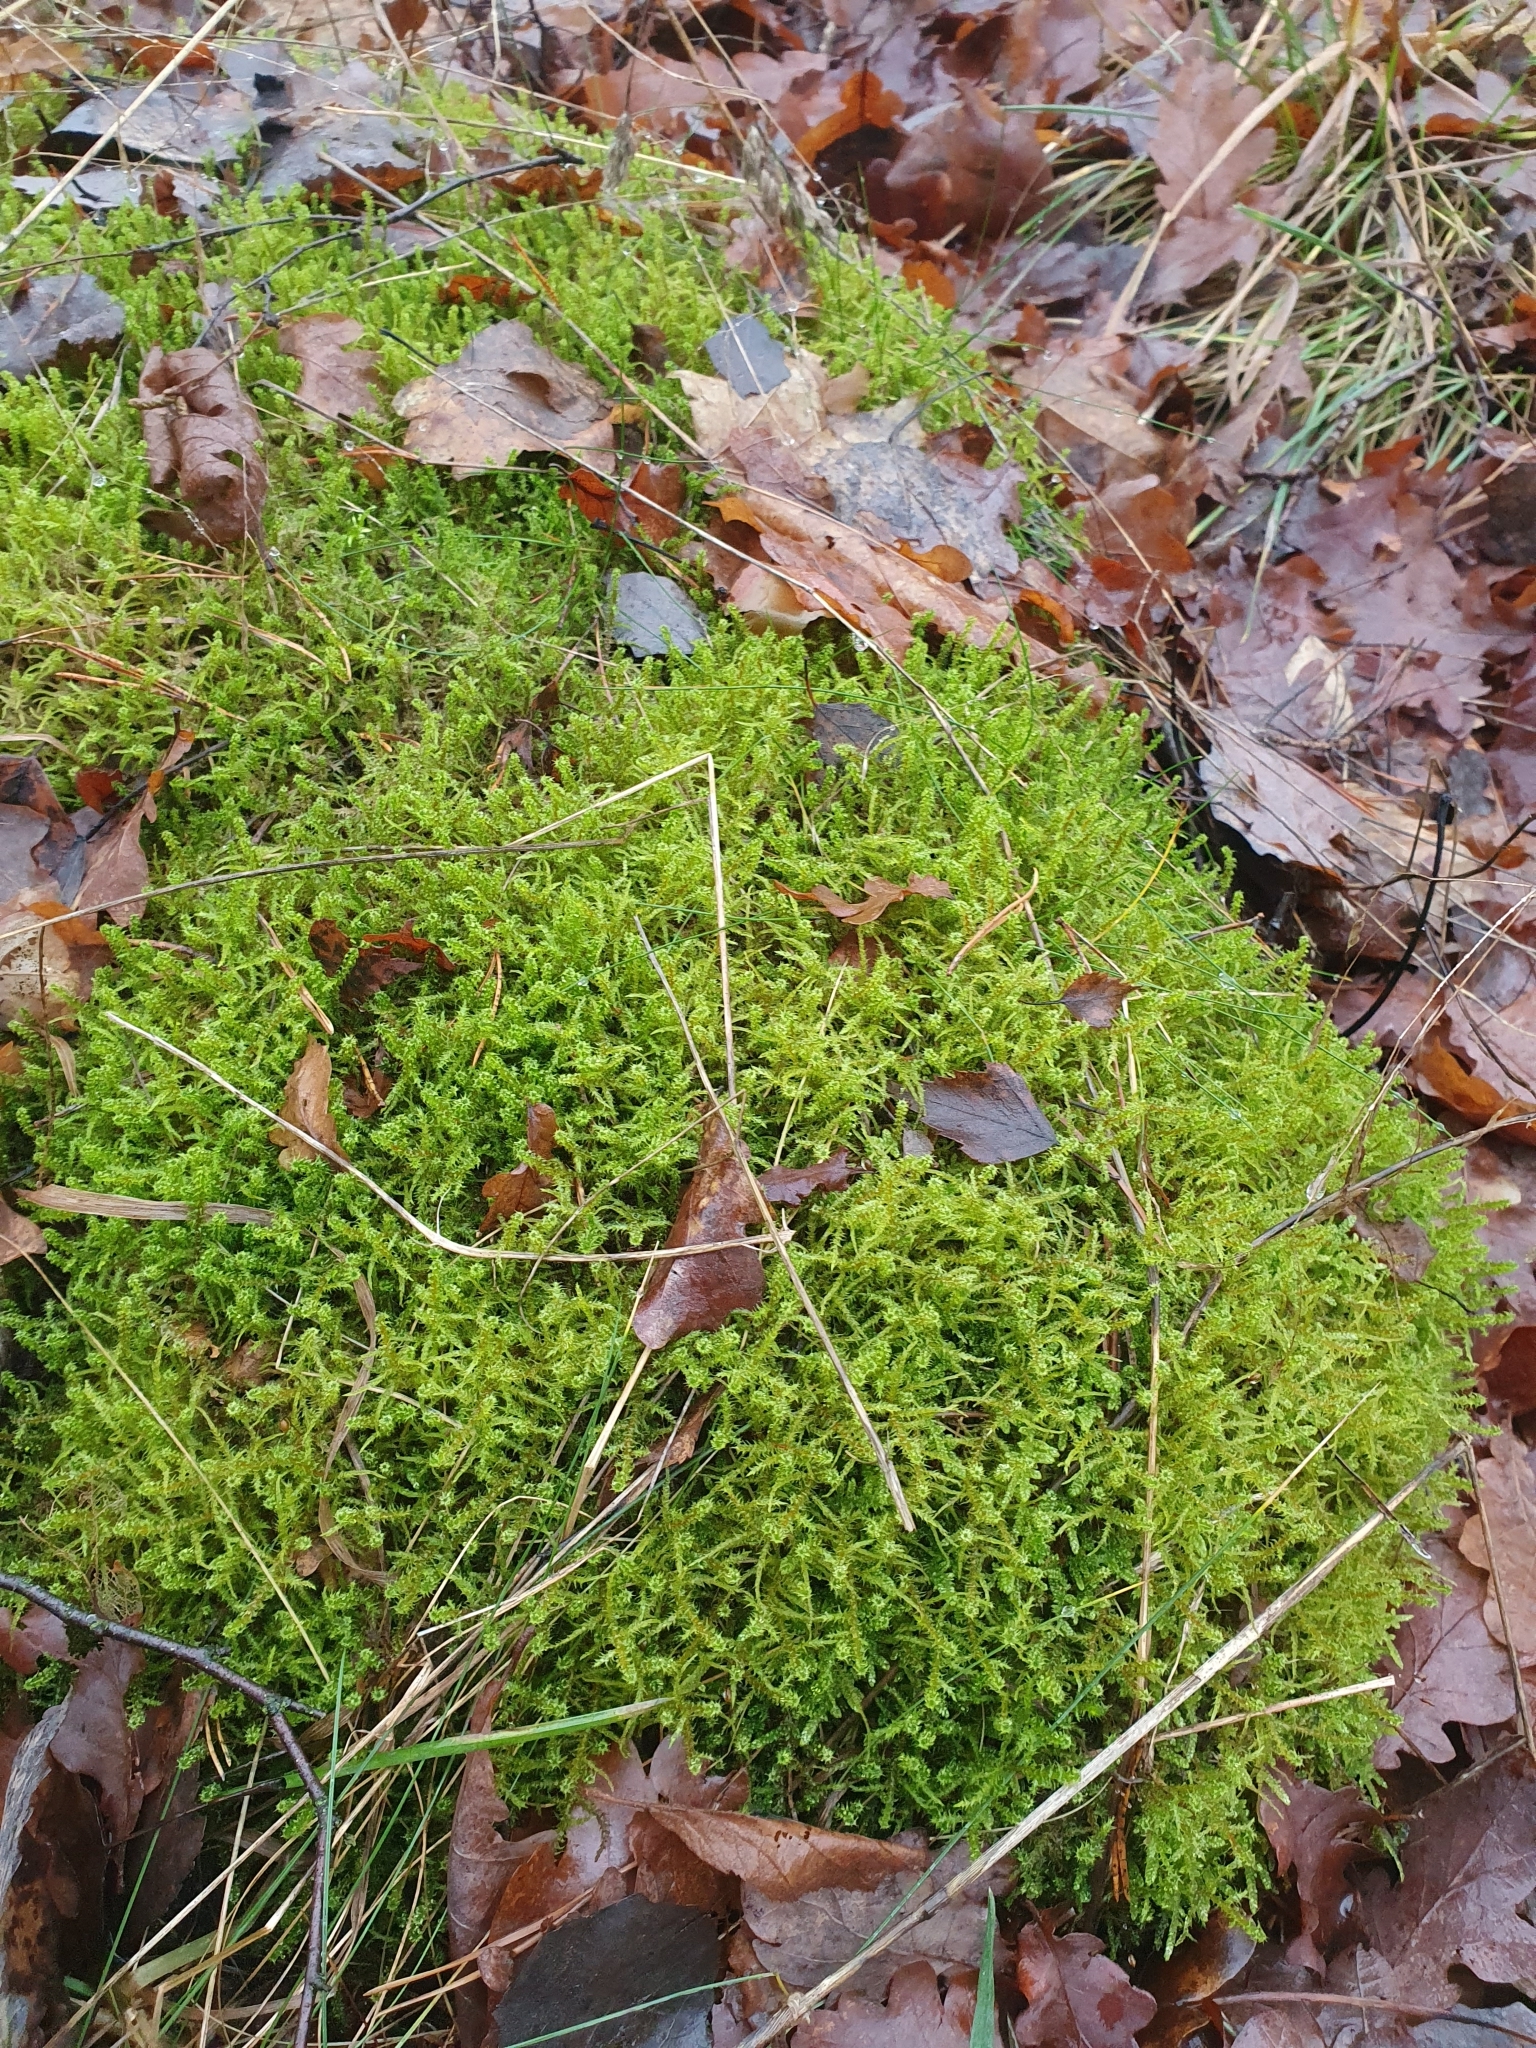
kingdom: Plantae
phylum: Bryophyta
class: Bryopsida
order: Hypnales
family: Hylocomiaceae
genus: Rhytidiadelphus
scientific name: Rhytidiadelphus squarrosus
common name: Springy turf-moss
